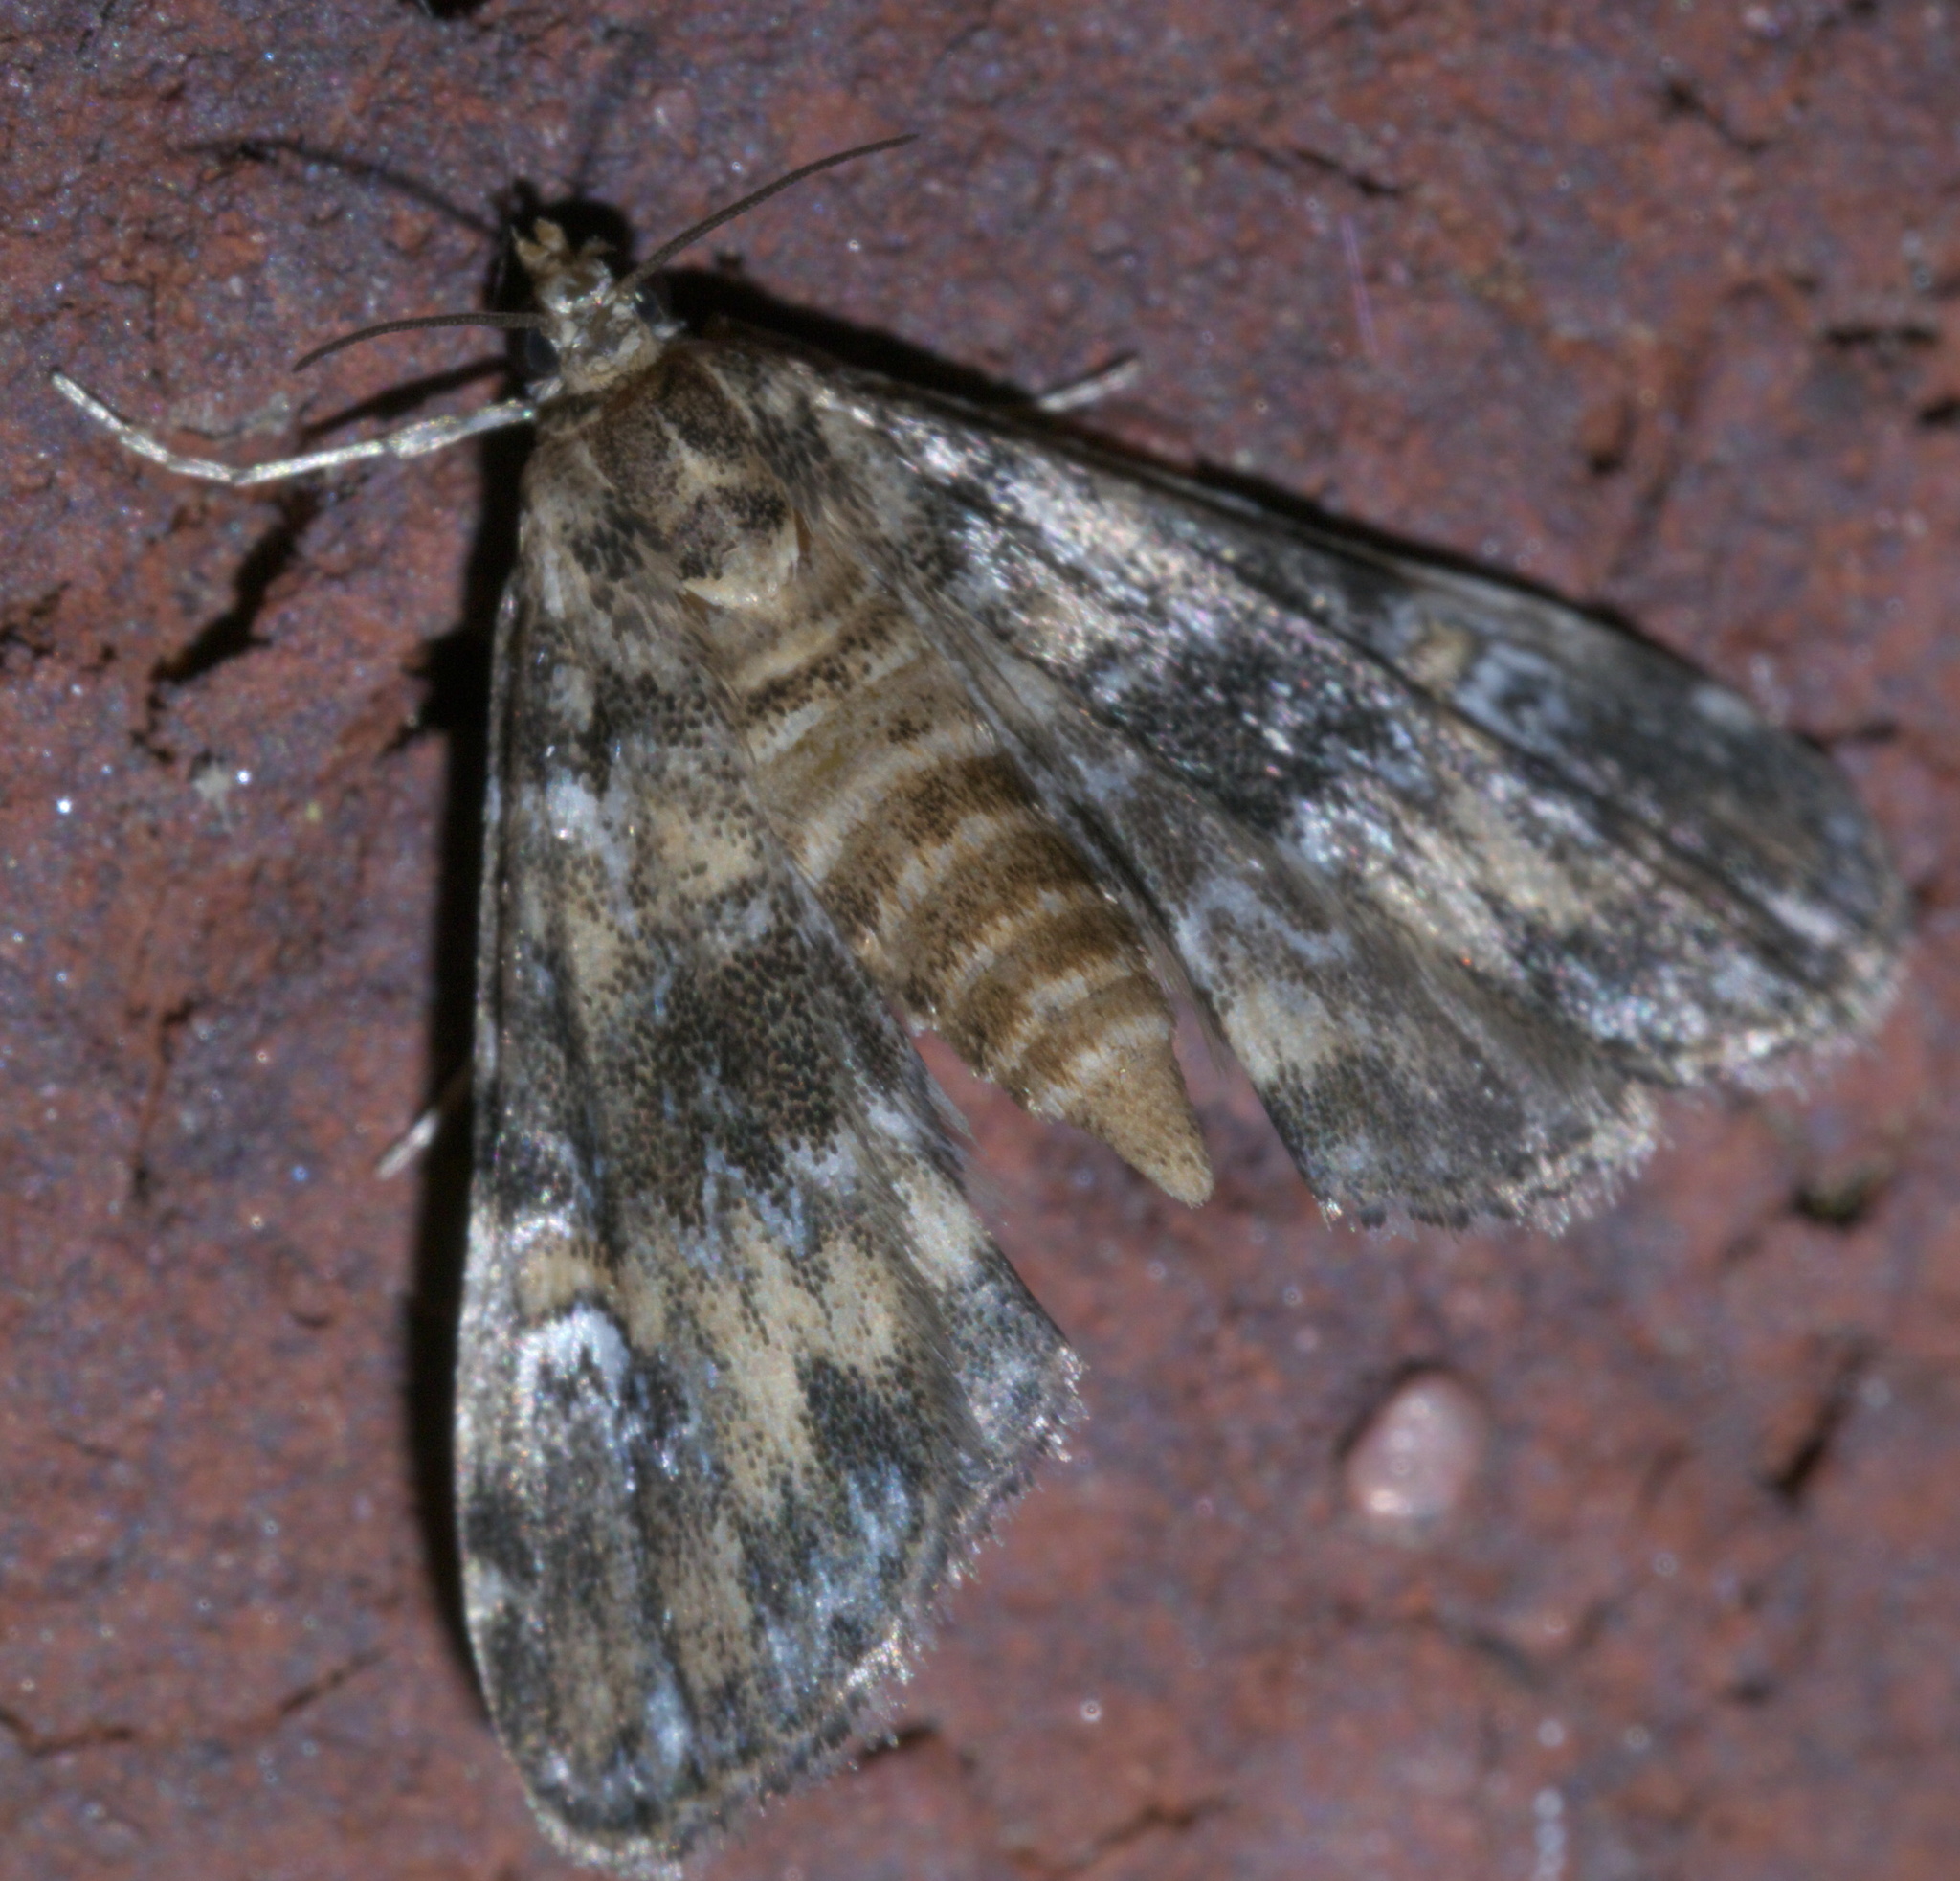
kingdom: Animalia
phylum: Arthropoda
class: Insecta
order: Lepidoptera
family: Crambidae
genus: Elophila
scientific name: Elophila obliteralis
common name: Waterlily leafcutter moth
